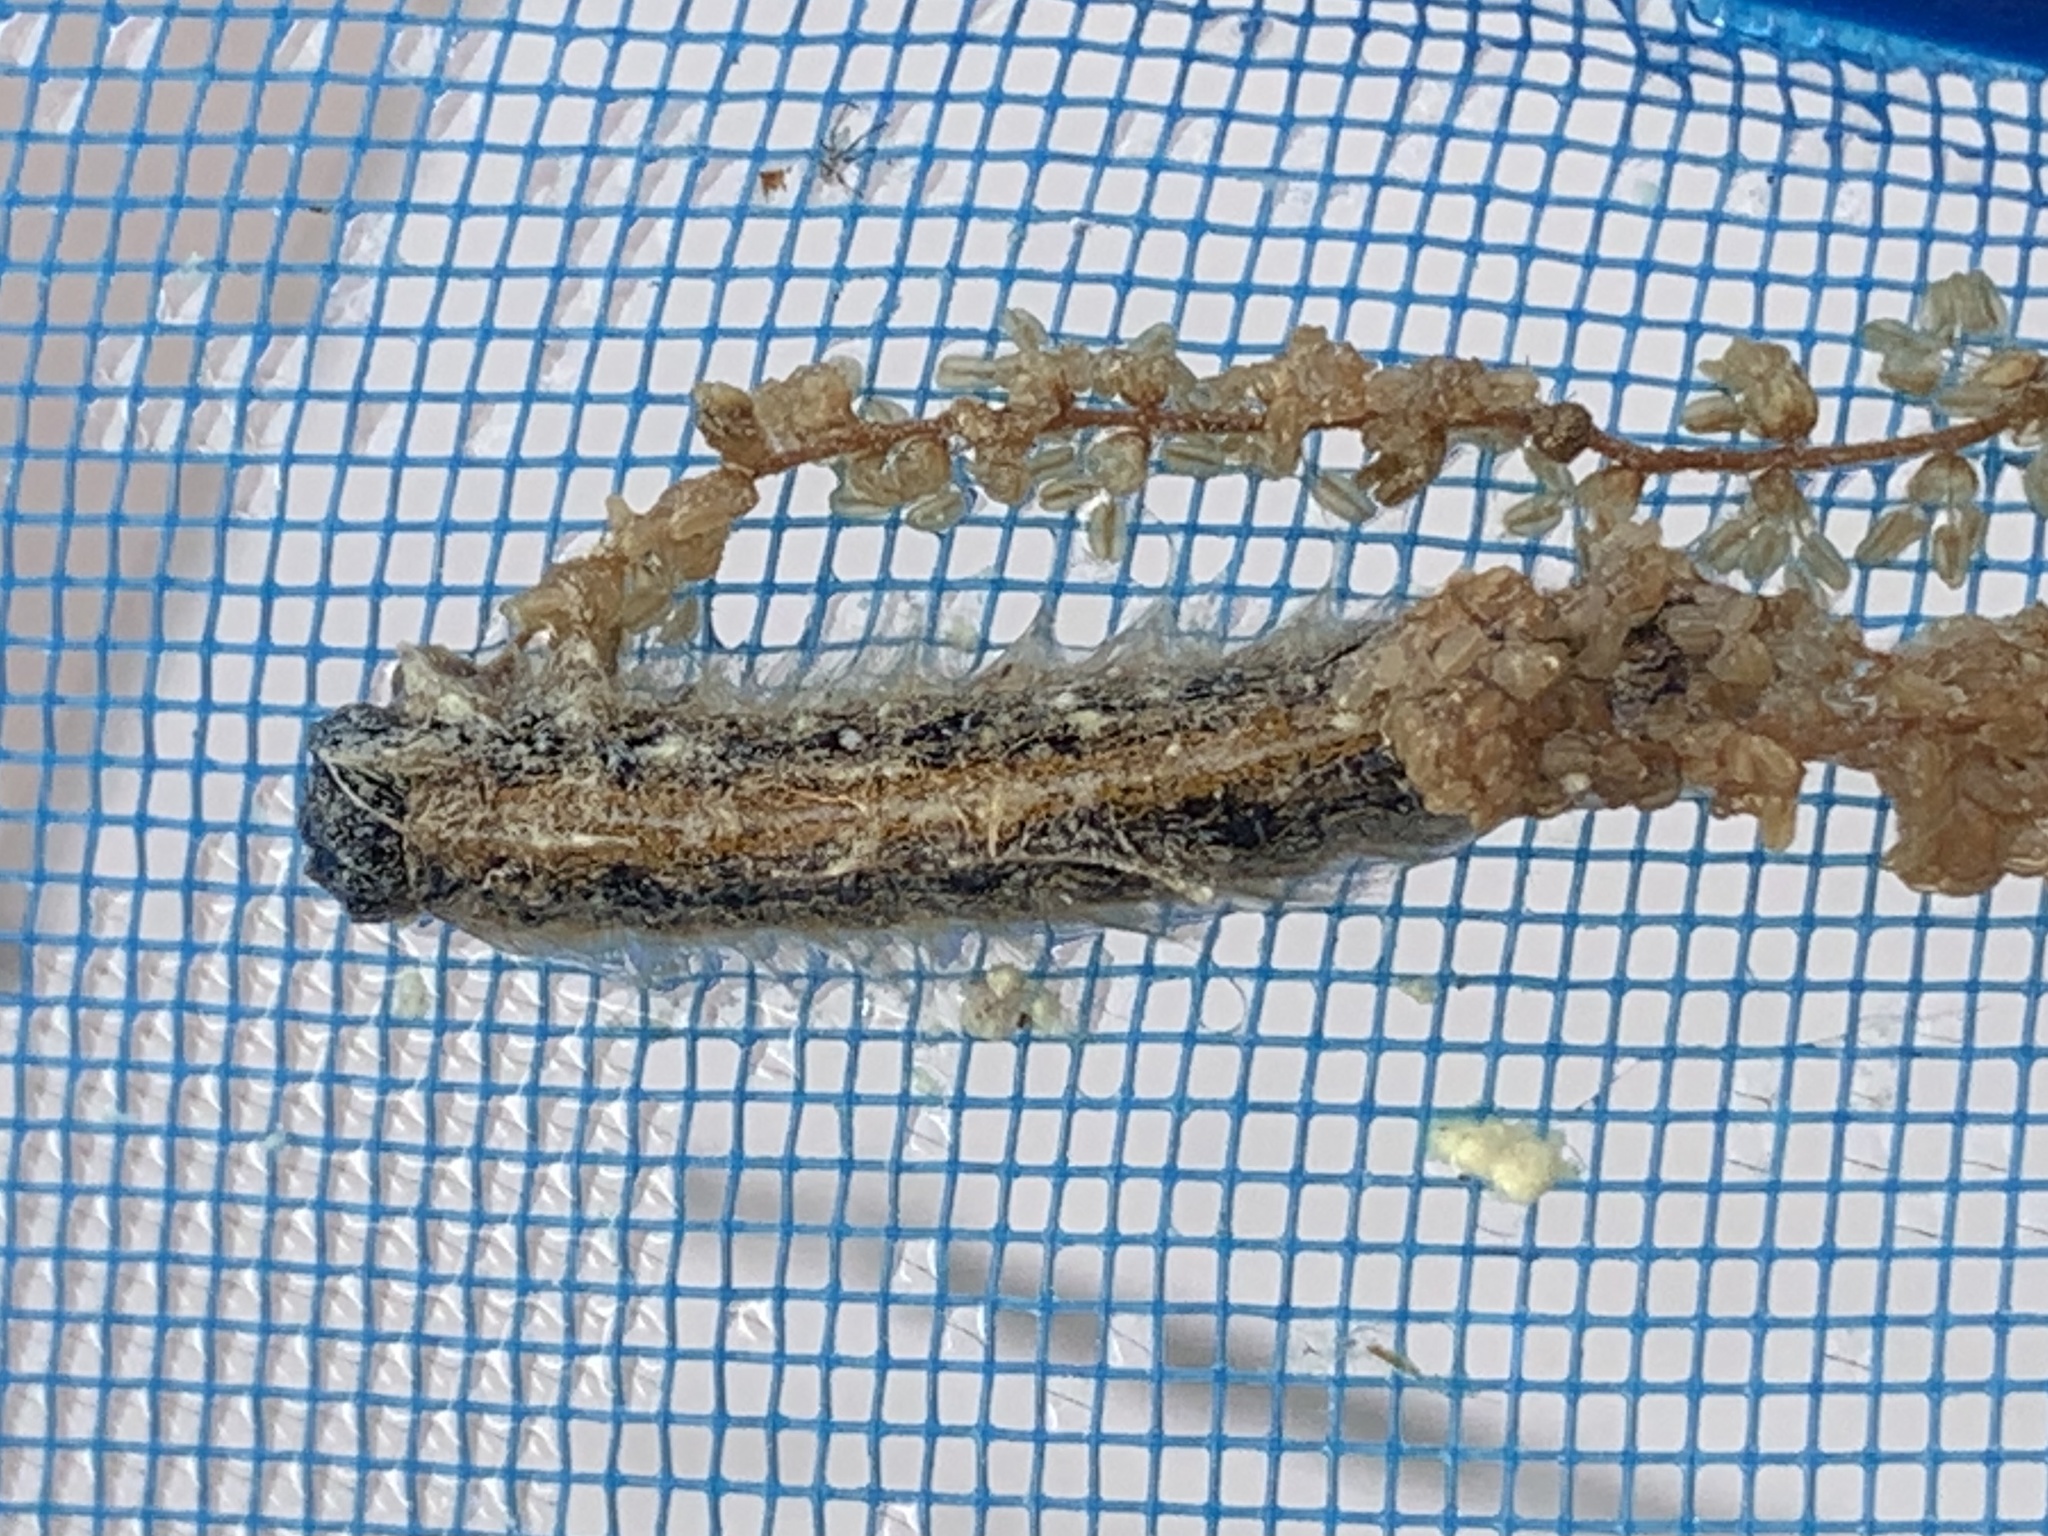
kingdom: Animalia
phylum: Arthropoda
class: Insecta
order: Lepidoptera
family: Lasiocampidae
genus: Malacosoma
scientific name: Malacosoma americana
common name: Eastern tent caterpillar moth
